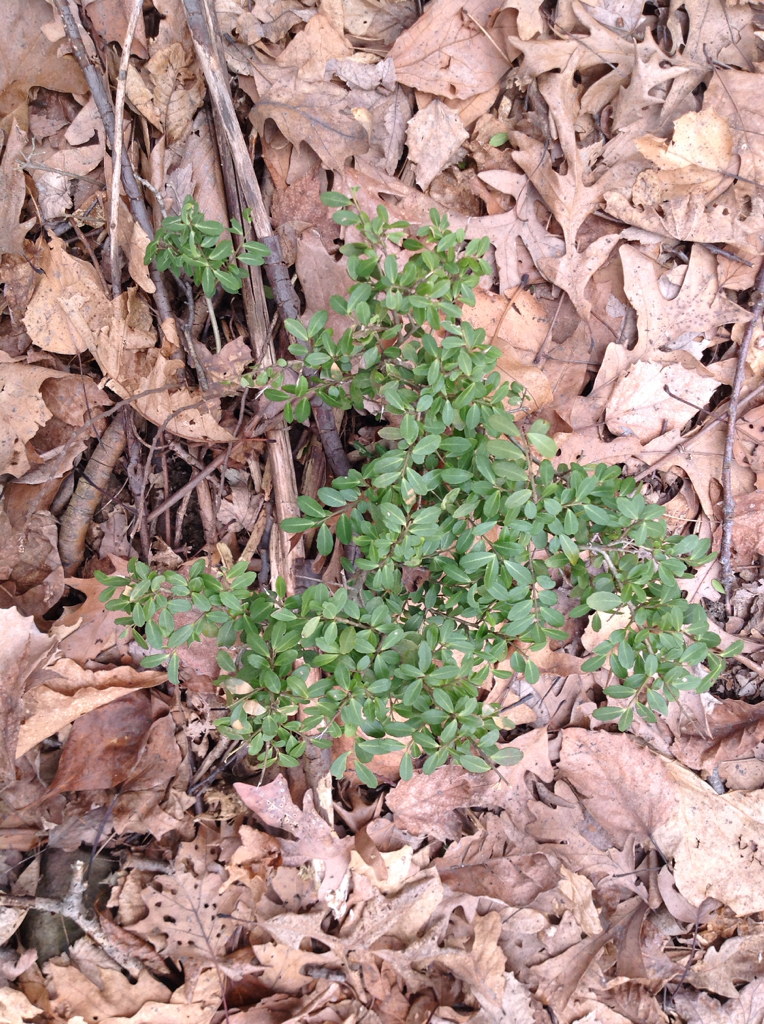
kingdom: Plantae
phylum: Tracheophyta
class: Magnoliopsida
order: Aquifoliales
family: Aquifoliaceae
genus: Ilex
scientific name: Ilex crenata
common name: Japanese holly
